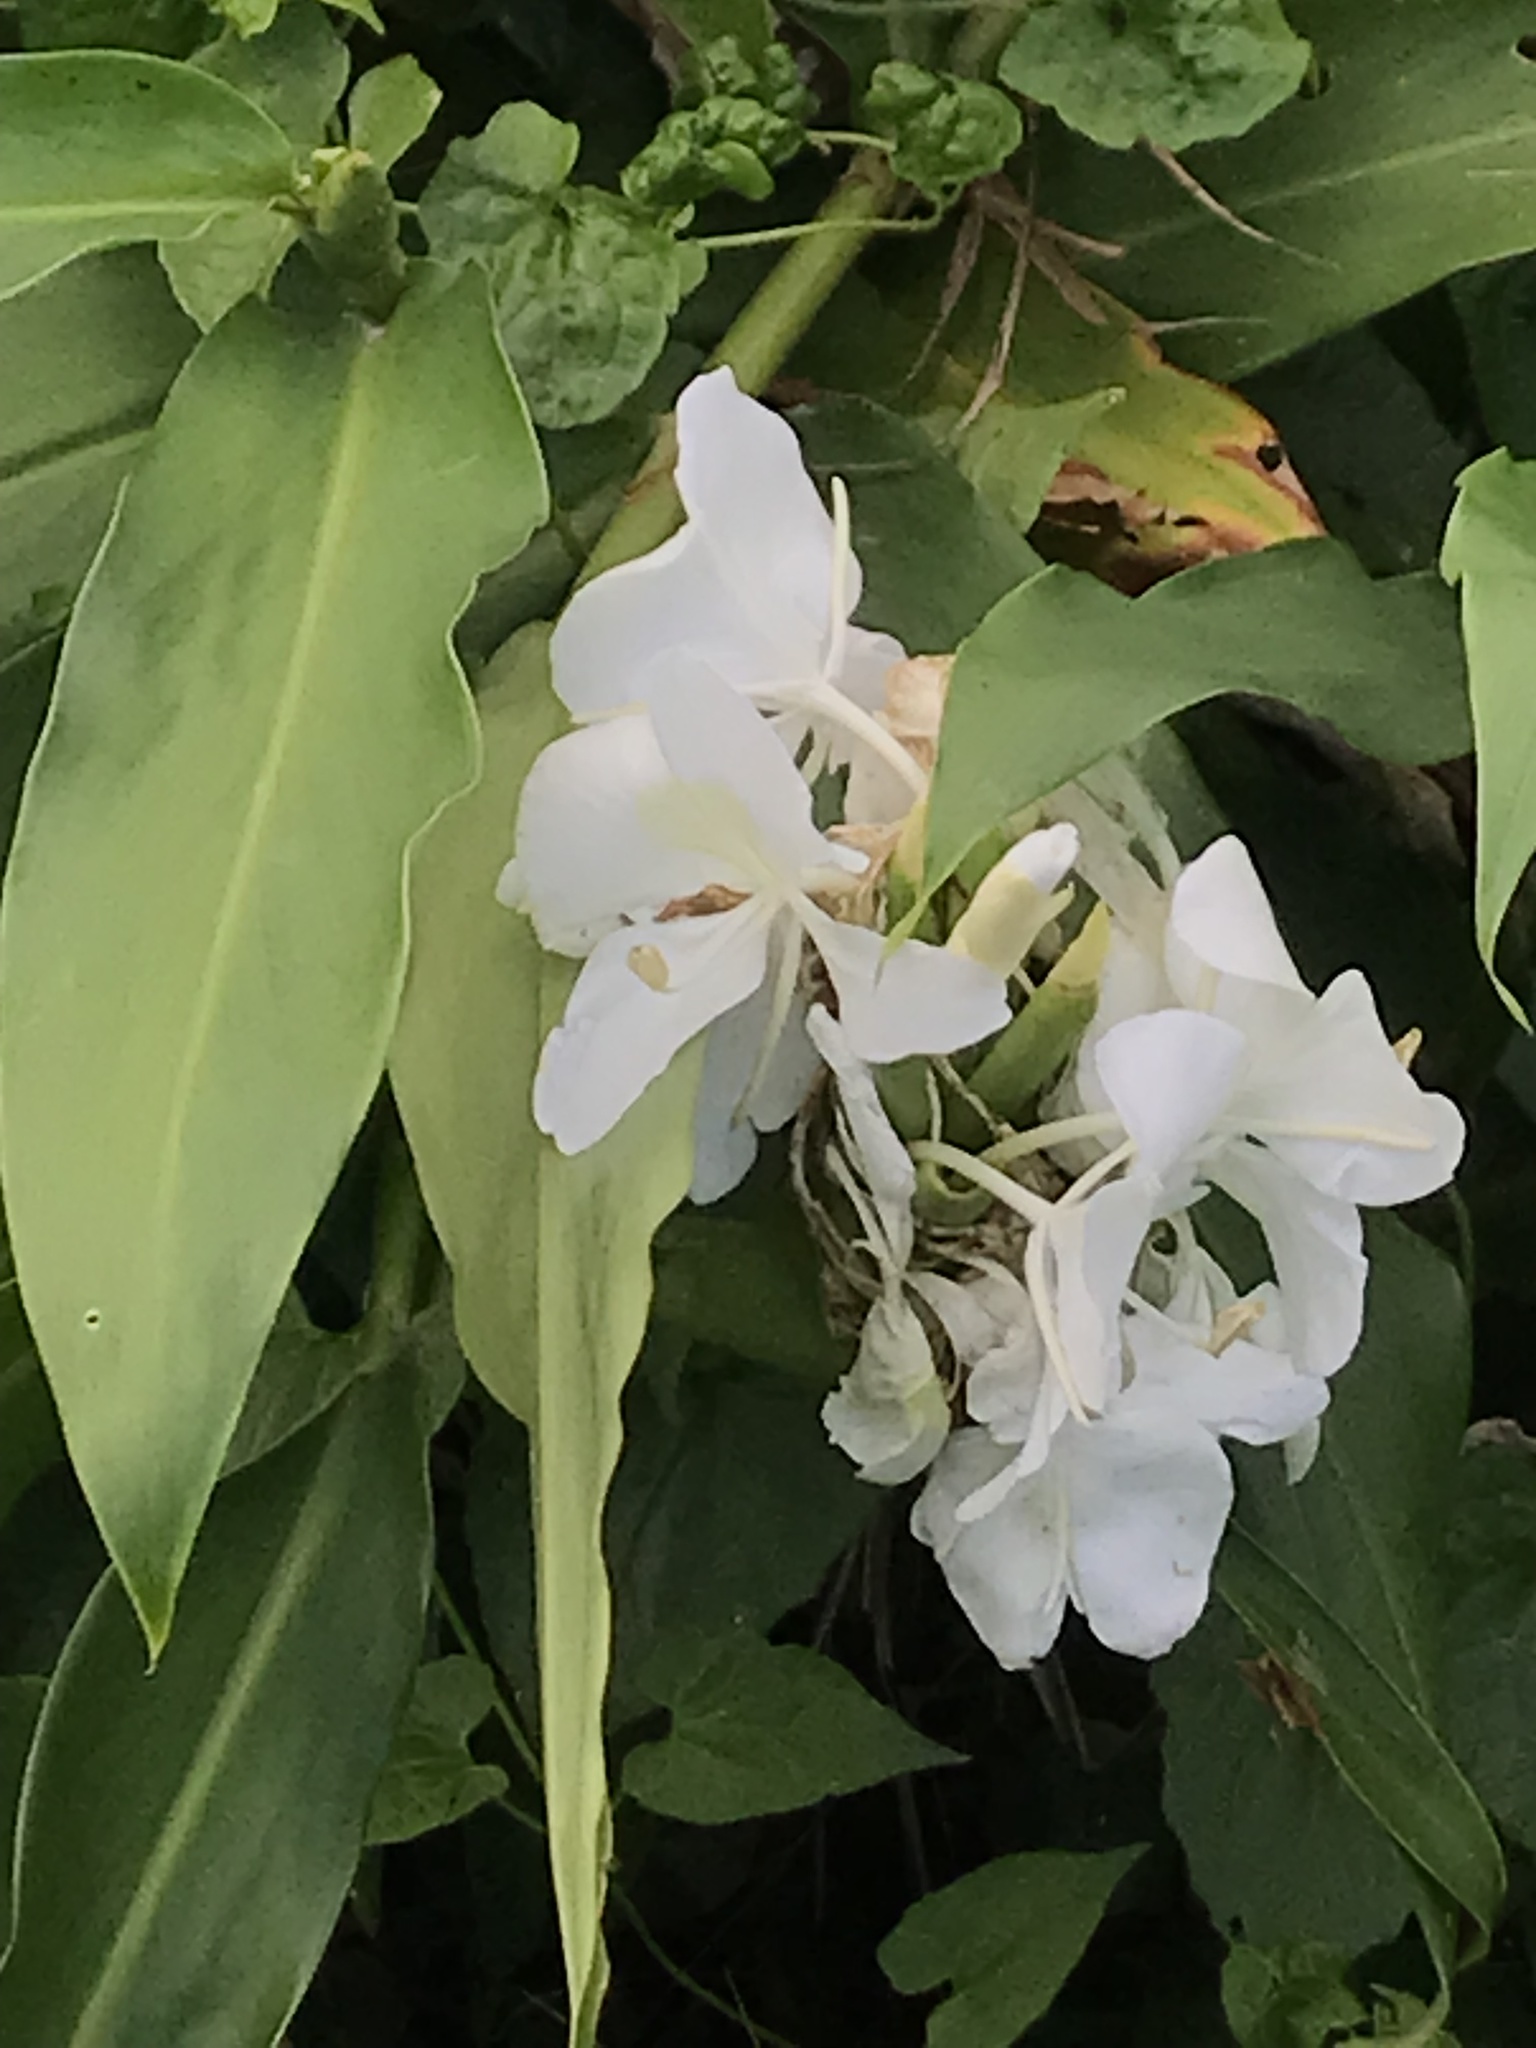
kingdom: Plantae
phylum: Tracheophyta
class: Liliopsida
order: Zingiberales
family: Zingiberaceae
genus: Hedychium
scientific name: Hedychium coronarium
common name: White garland-lily
